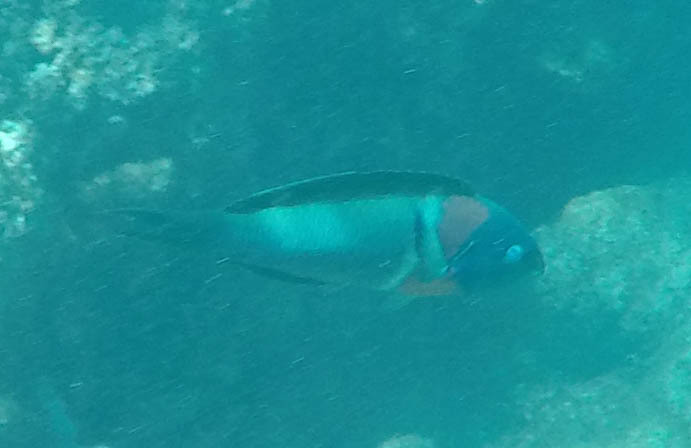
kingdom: Animalia
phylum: Chordata
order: Perciformes
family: Labridae
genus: Thalassoma
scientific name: Thalassoma duperrey
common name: Saddle wrasse
